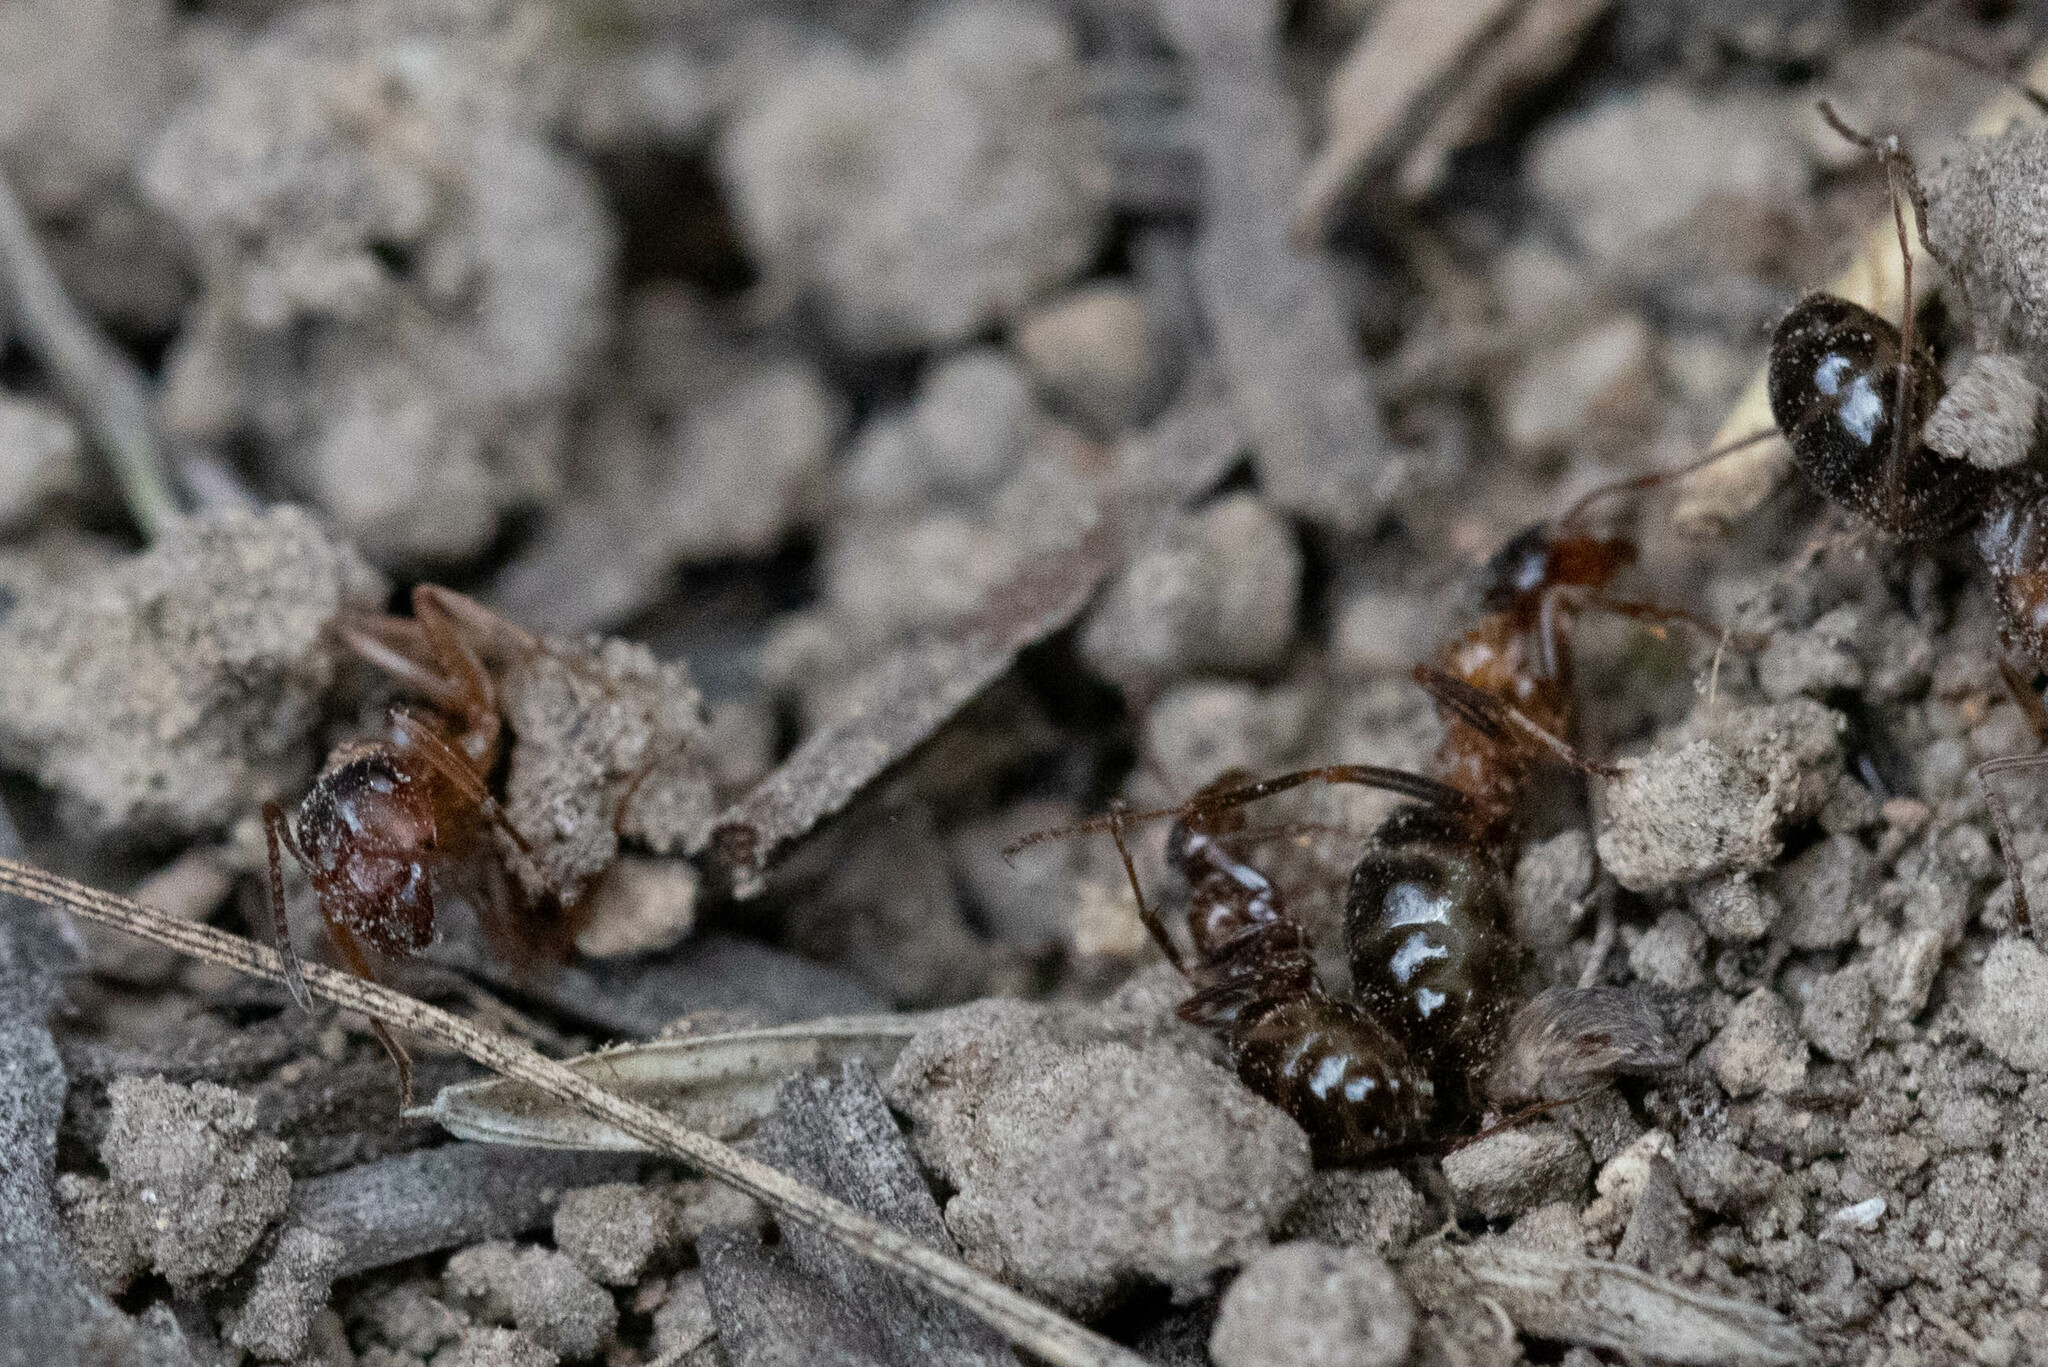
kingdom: Animalia
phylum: Arthropoda
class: Insecta
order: Hymenoptera
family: Formicidae
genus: Formica
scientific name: Formica subpolita
